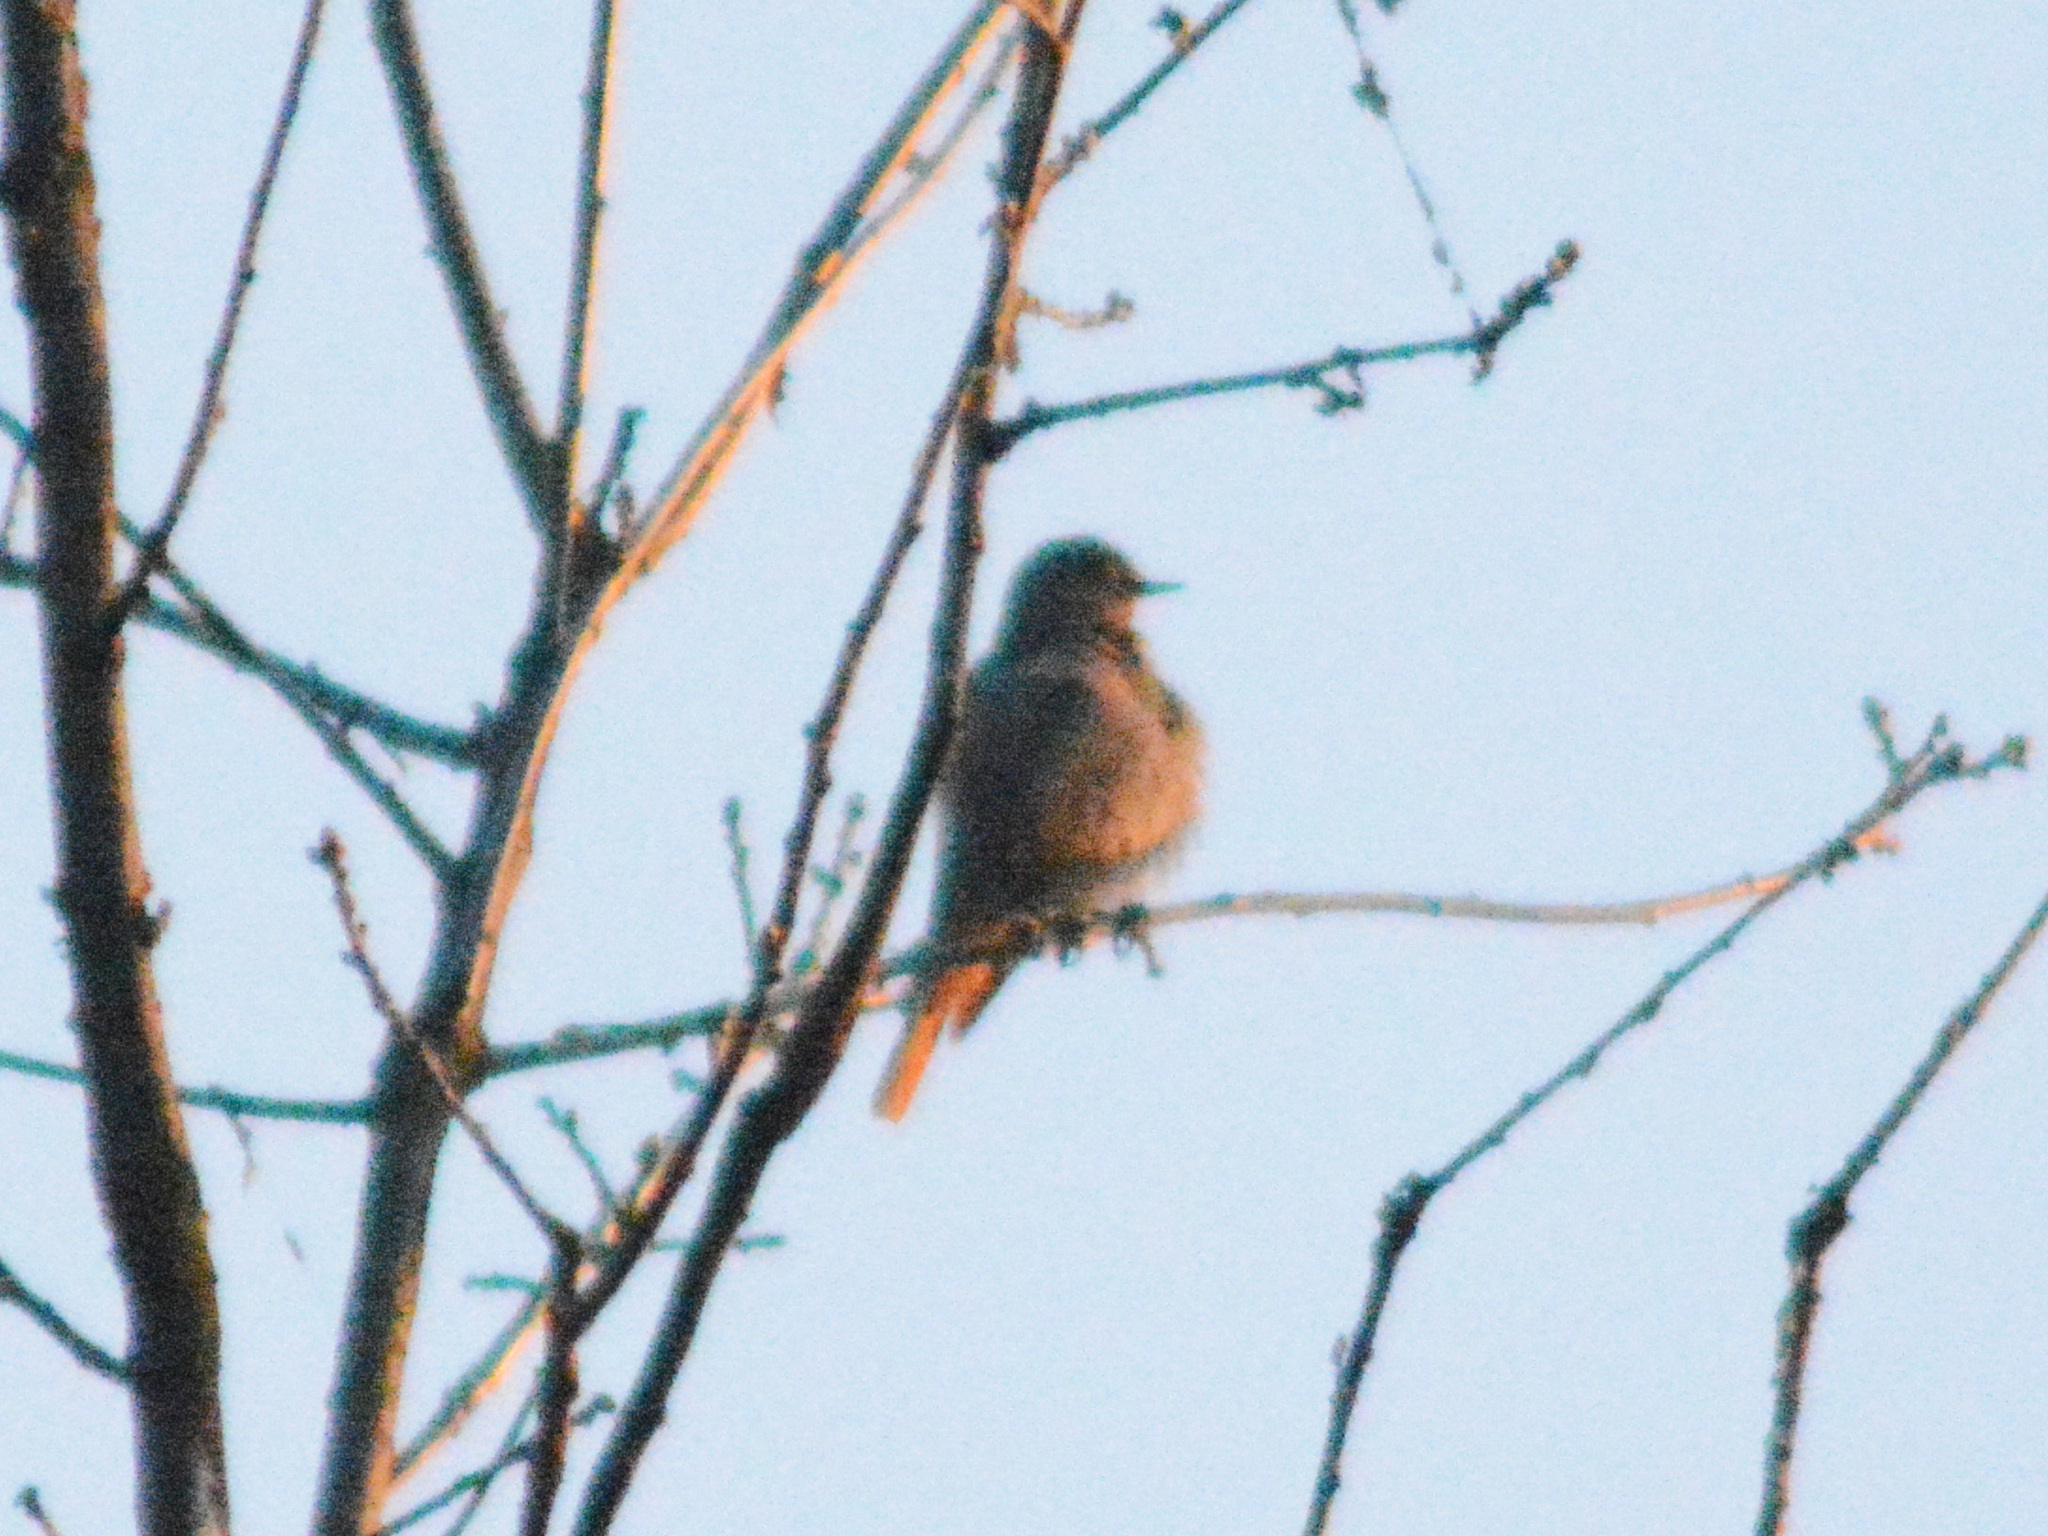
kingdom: Animalia
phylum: Chordata
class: Aves
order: Passeriformes
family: Muscicapidae
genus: Phoenicurus
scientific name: Phoenicurus ochruros
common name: Black redstart
